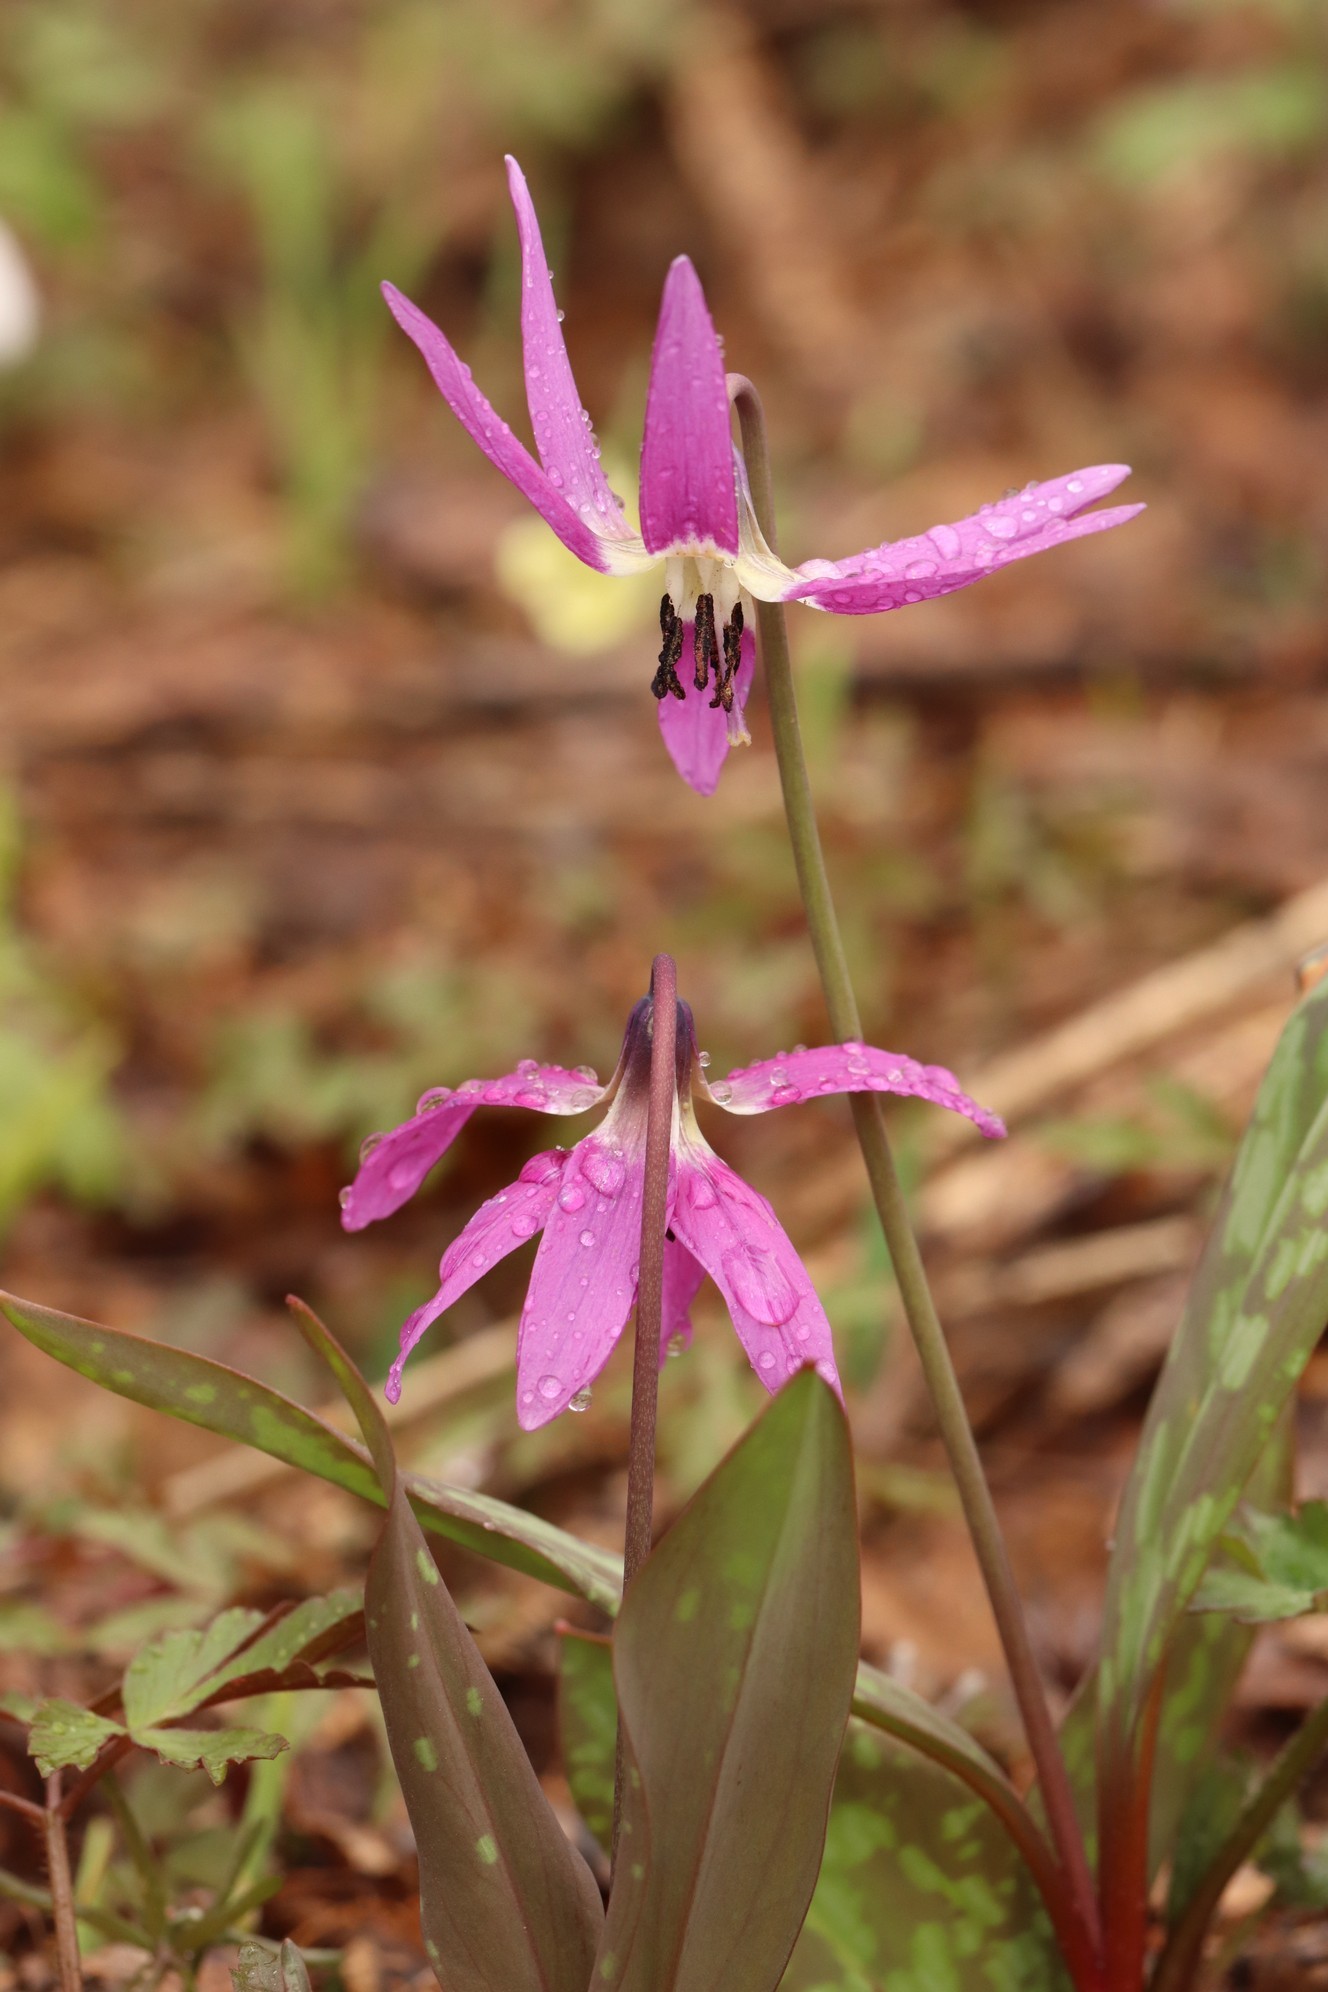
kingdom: Plantae
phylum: Tracheophyta
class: Liliopsida
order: Liliales
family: Liliaceae
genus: Erythronium
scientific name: Erythronium sulevii
